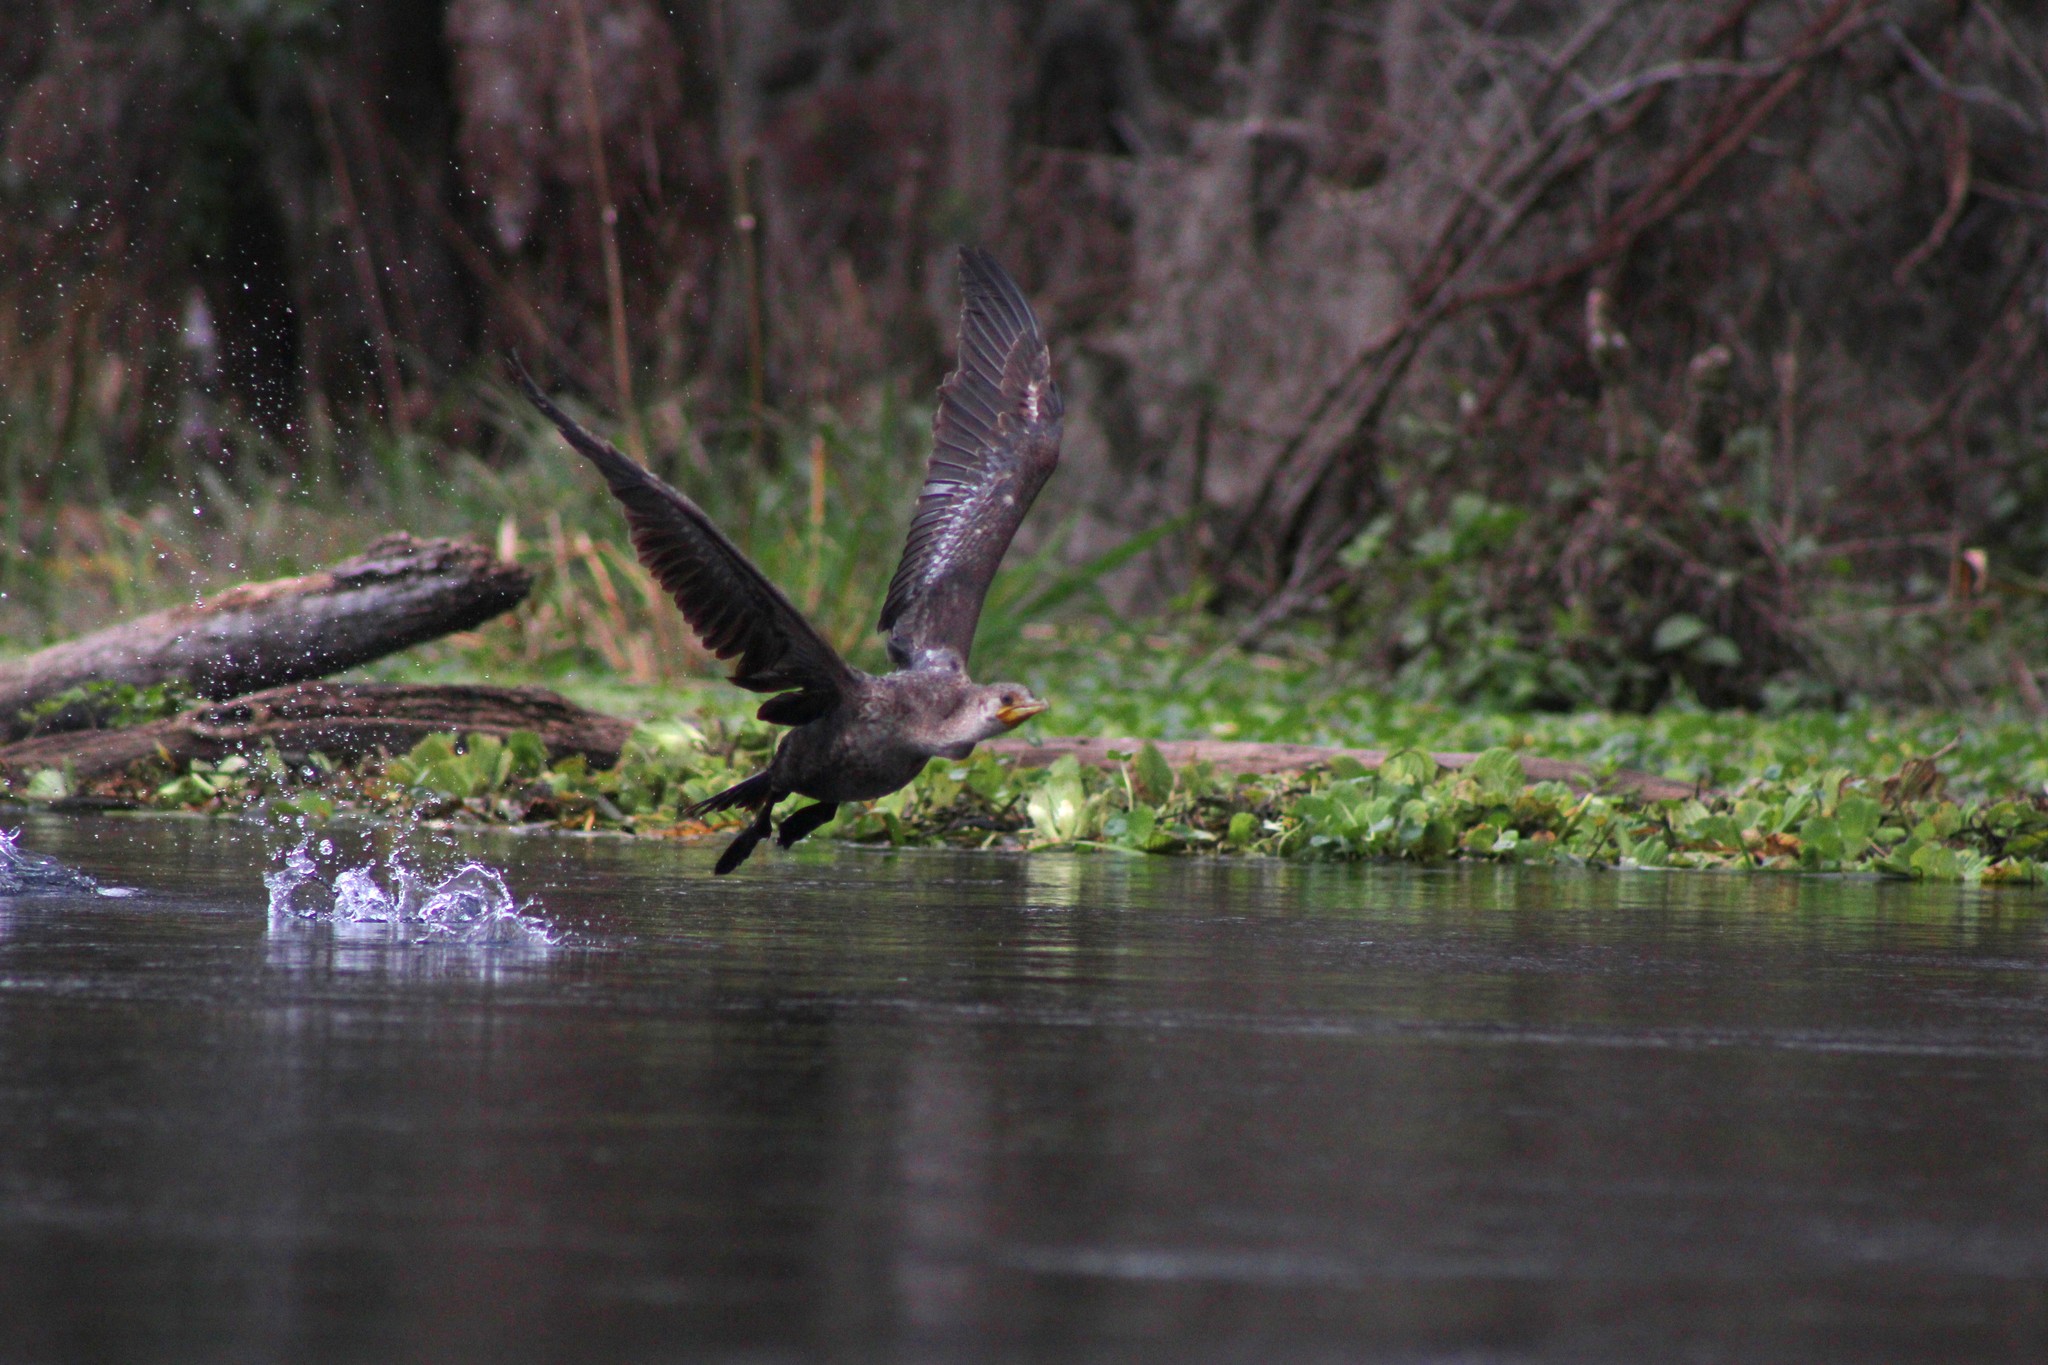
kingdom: Animalia
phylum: Chordata
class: Aves
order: Suliformes
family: Phalacrocoracidae
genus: Phalacrocorax
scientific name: Phalacrocorax auritus
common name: Double-crested cormorant
